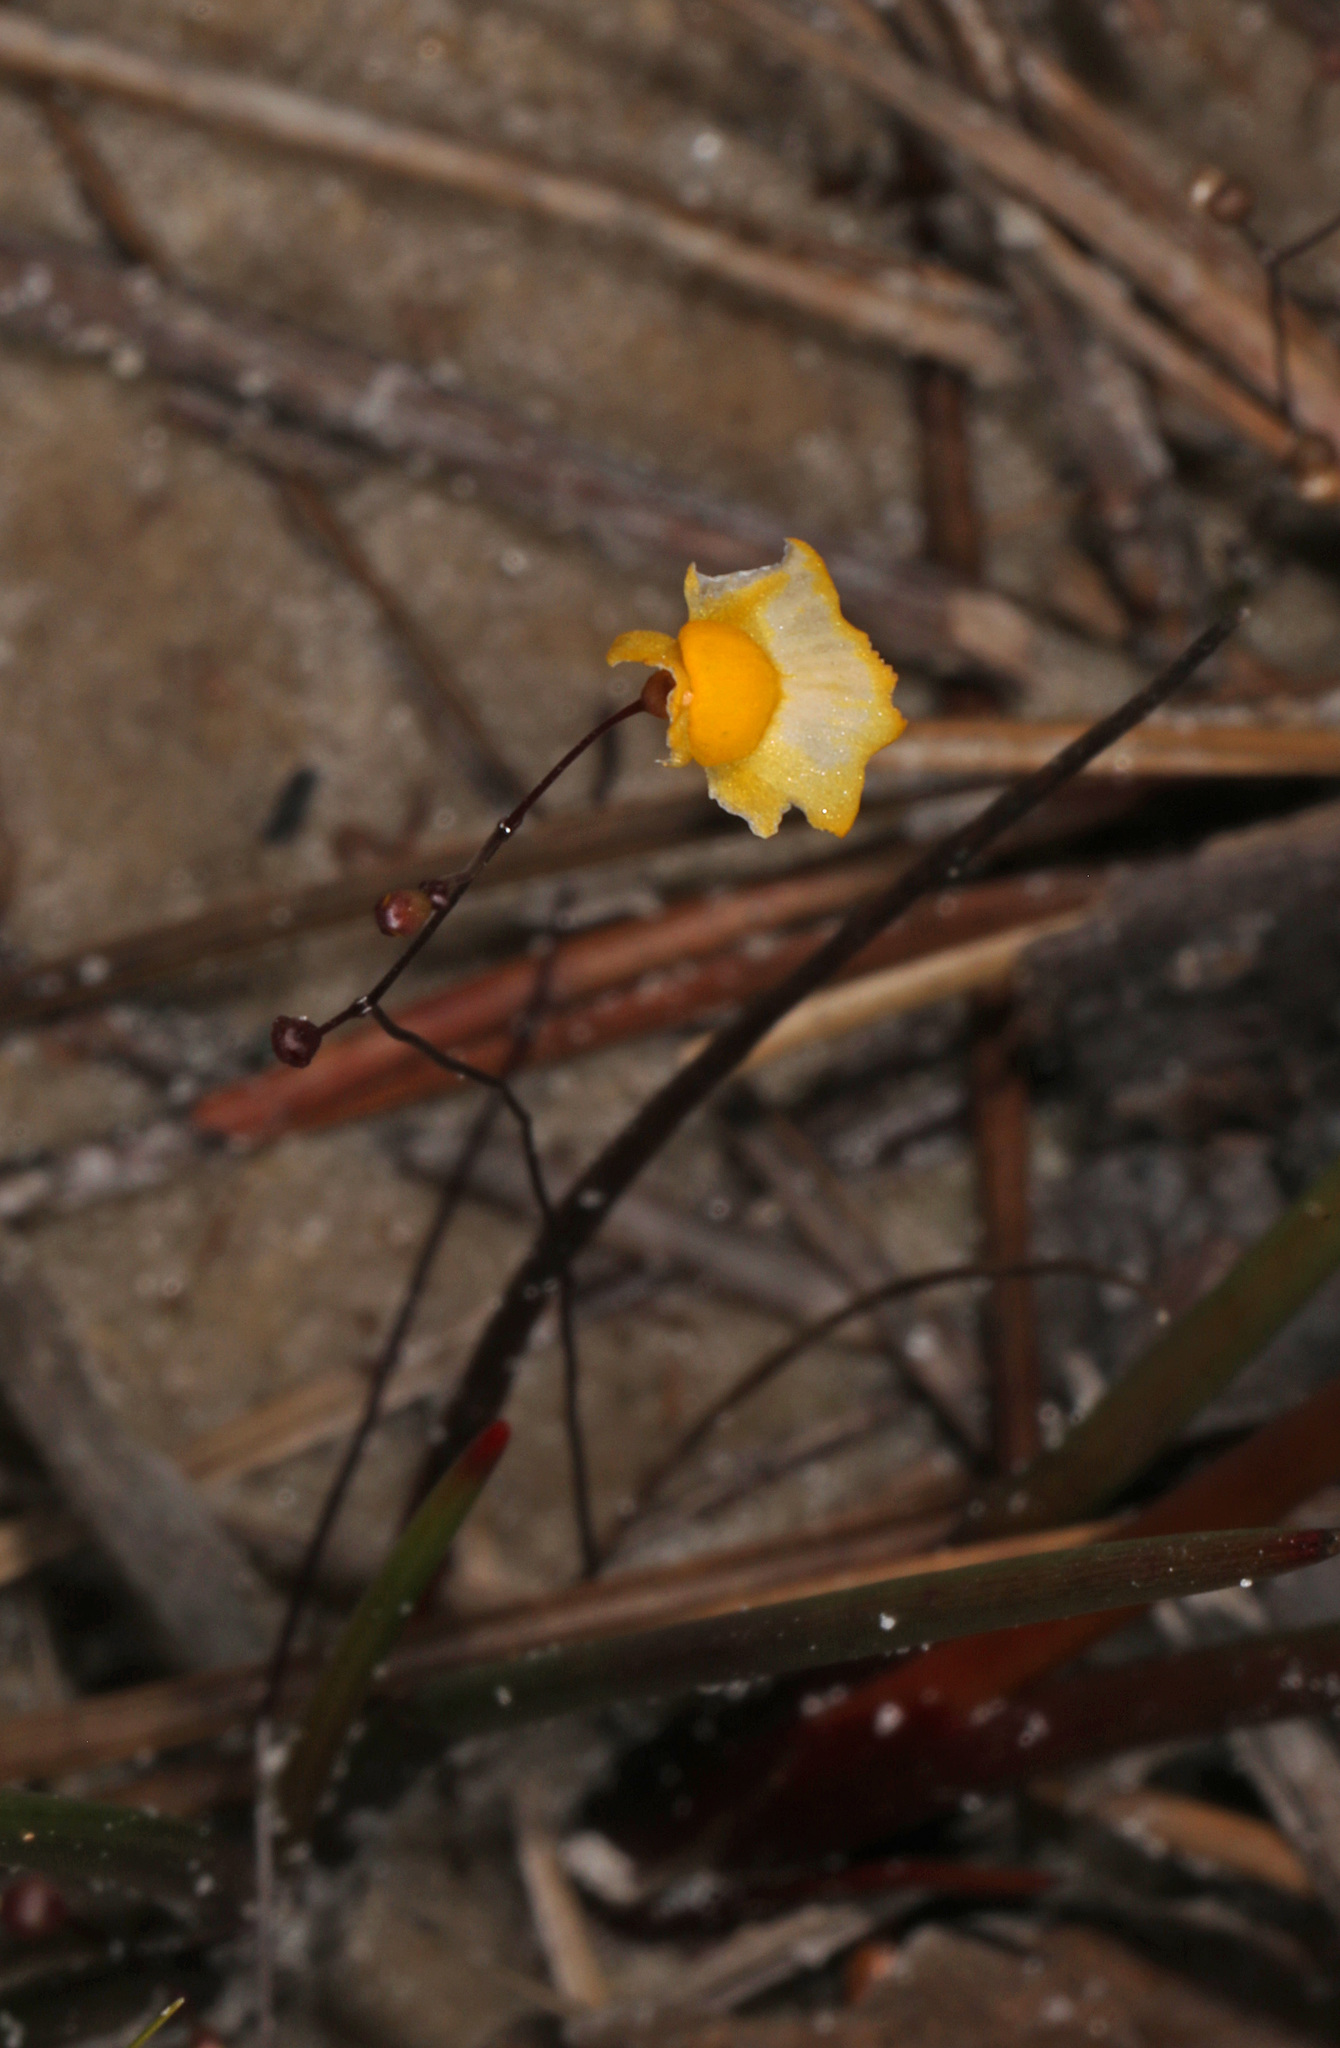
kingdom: Plantae
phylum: Tracheophyta
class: Magnoliopsida
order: Lamiales
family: Lentibulariaceae
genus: Utricularia
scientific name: Utricularia subulata
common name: Tiny bladderwort
